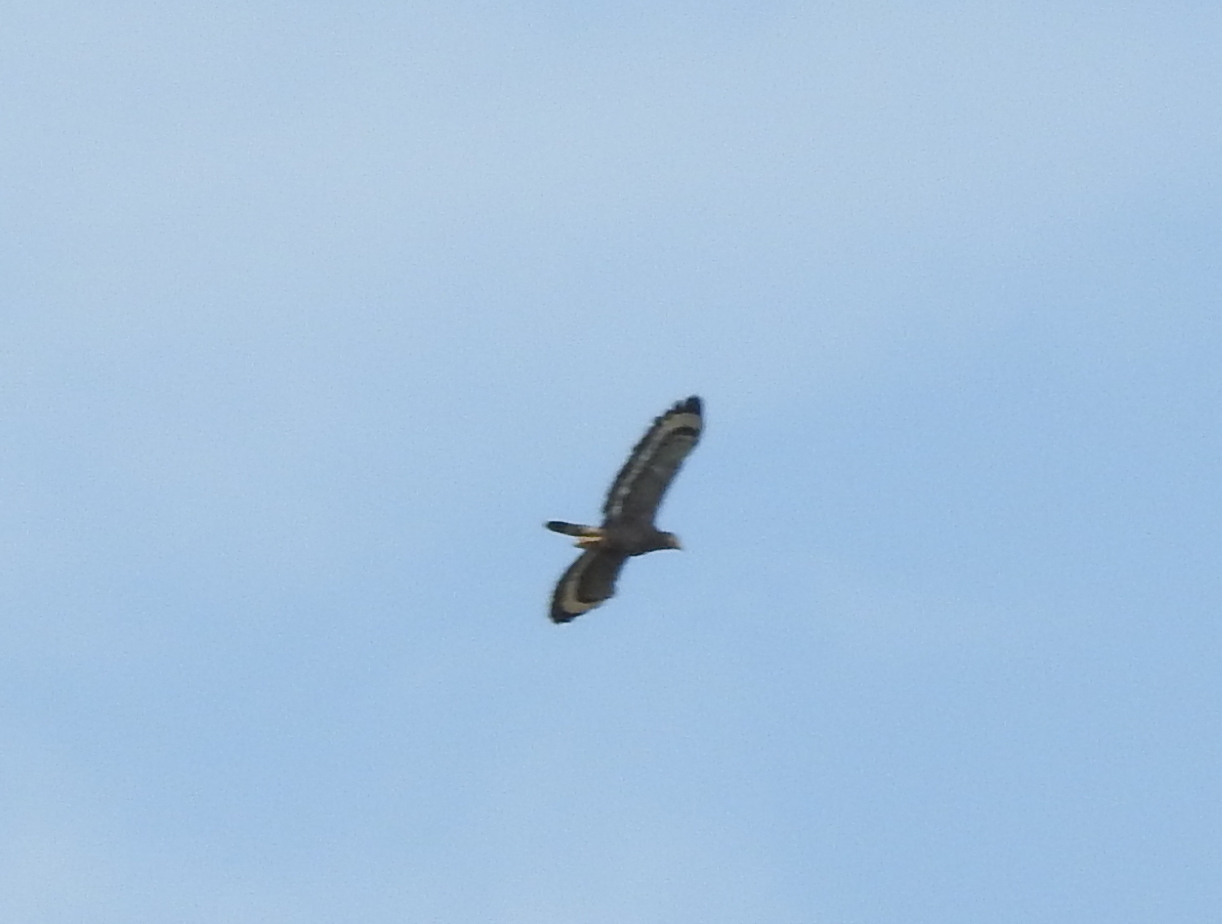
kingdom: Animalia
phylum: Chordata
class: Aves
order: Accipitriformes
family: Accipitridae
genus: Spilornis
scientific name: Spilornis cheela
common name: Crested serpent eagle
